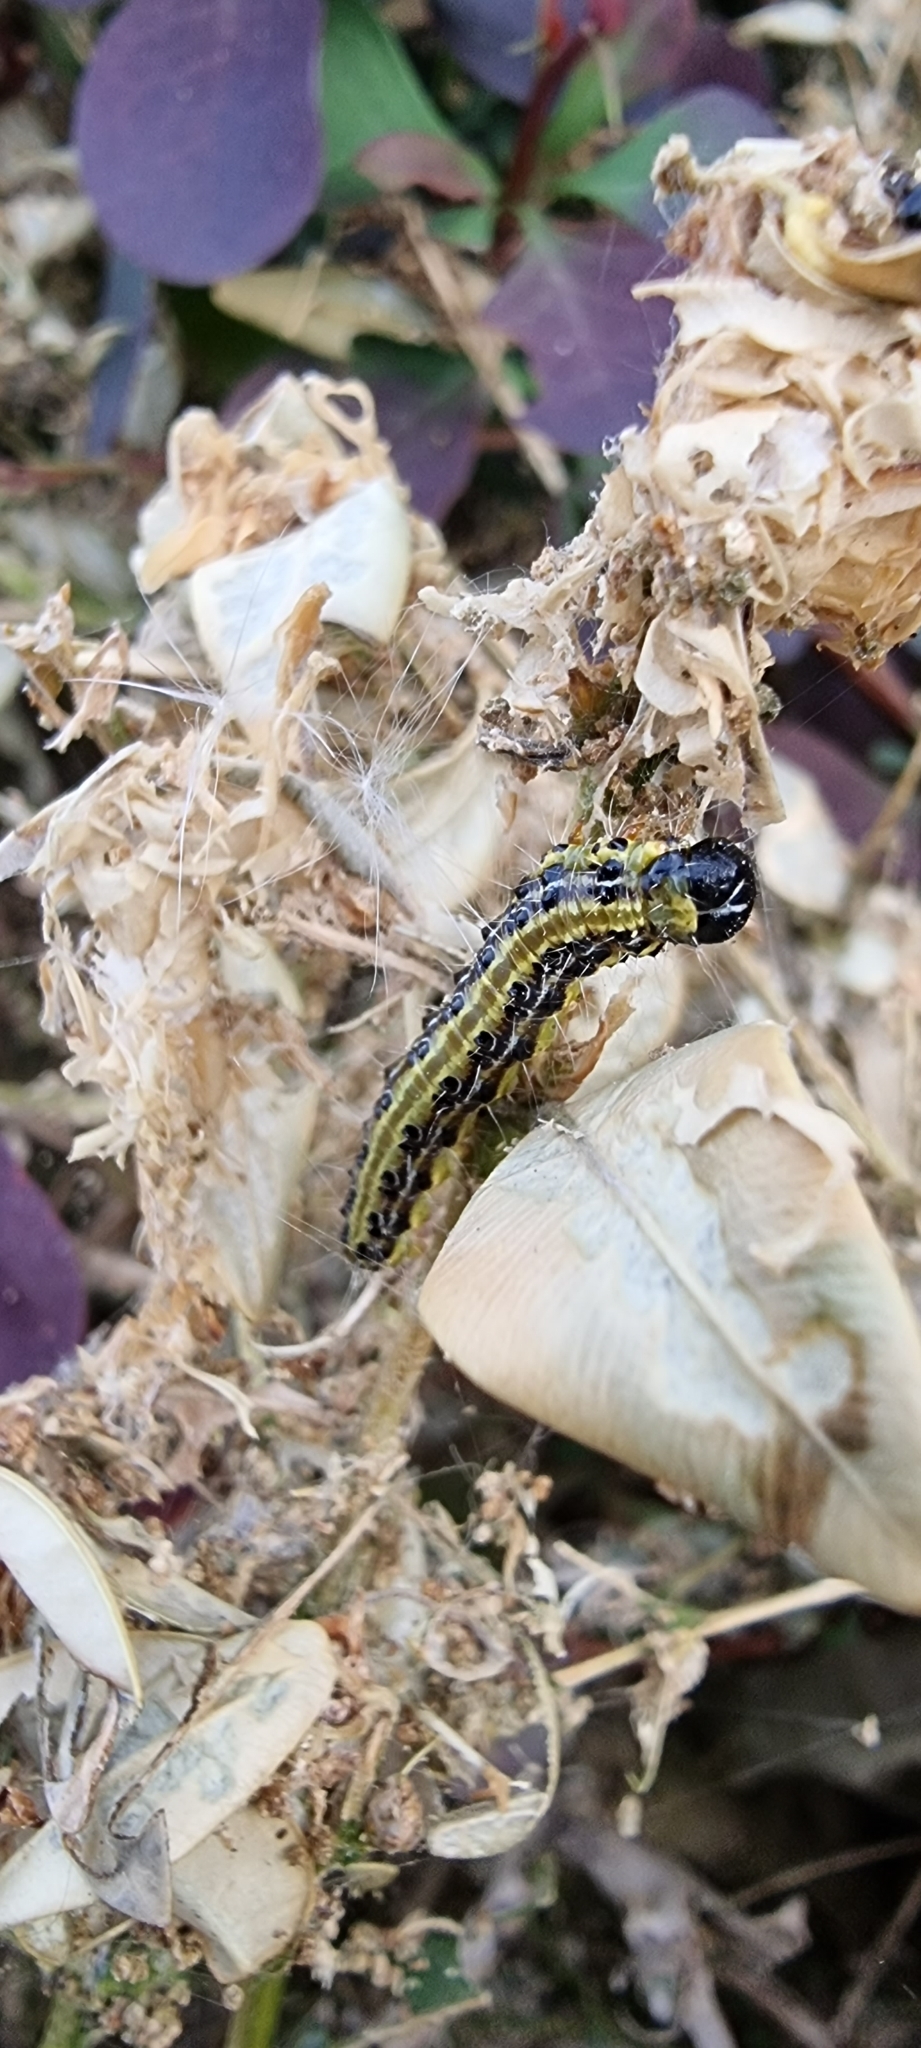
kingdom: Animalia
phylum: Arthropoda
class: Insecta
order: Lepidoptera
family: Crambidae
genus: Cydalima
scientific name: Cydalima perspectalis
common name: Box tree moth
